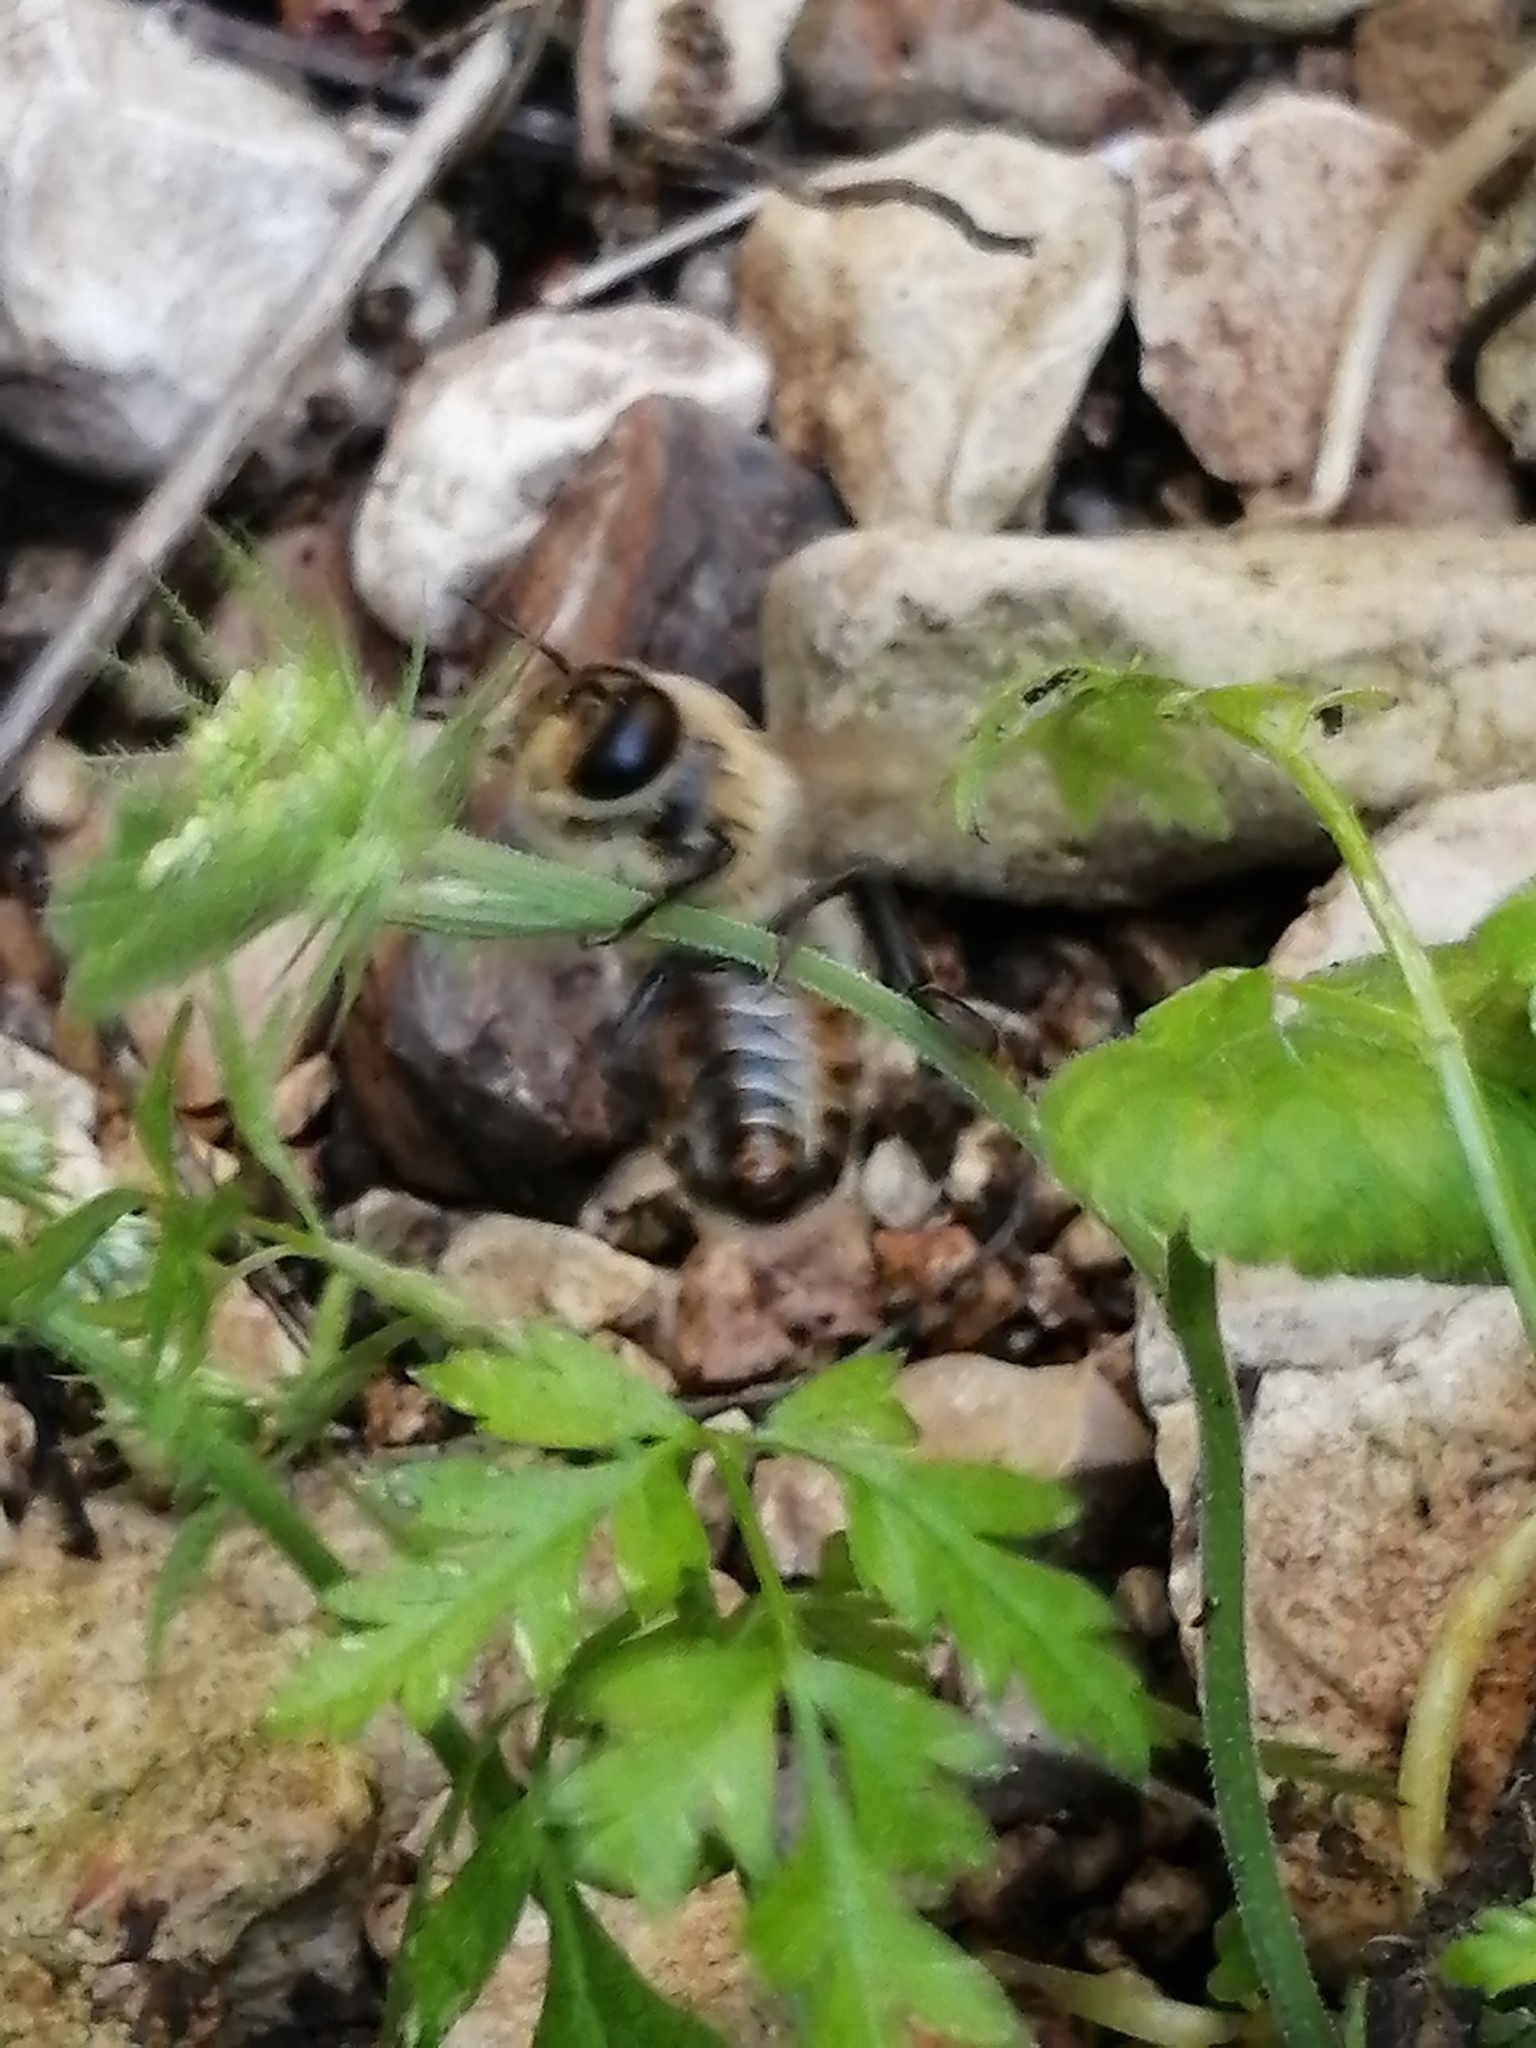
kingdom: Animalia
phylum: Arthropoda
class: Insecta
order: Hymenoptera
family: Apidae
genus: Apis
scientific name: Apis mellifera
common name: Honey bee
